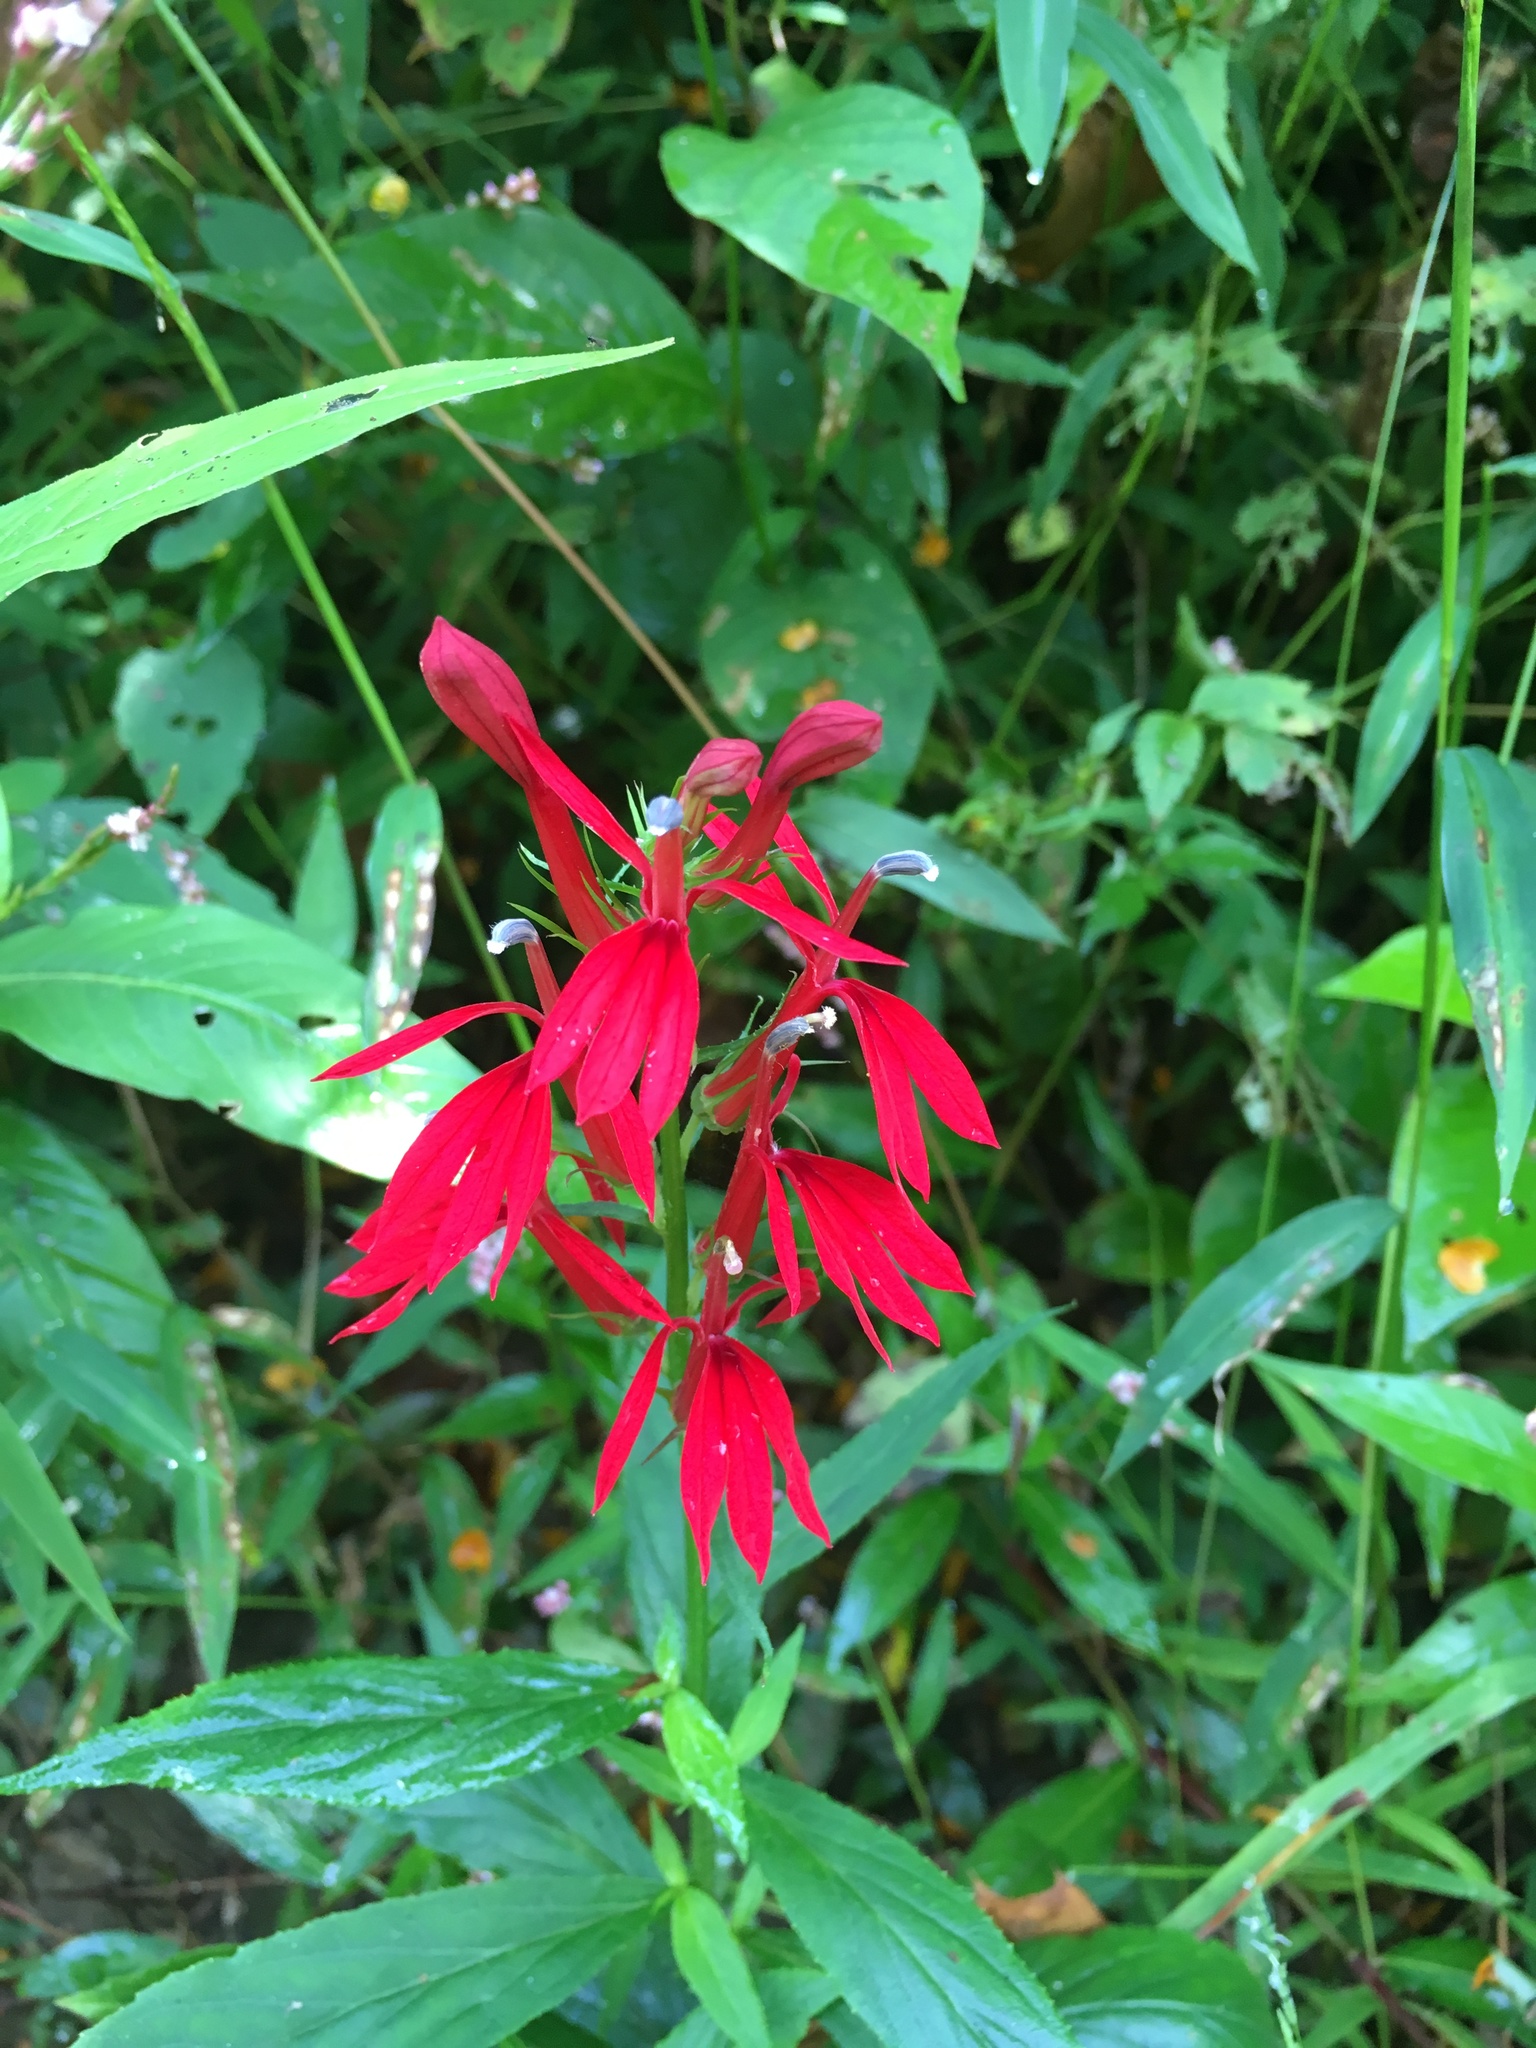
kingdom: Plantae
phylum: Tracheophyta
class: Magnoliopsida
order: Asterales
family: Campanulaceae
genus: Lobelia
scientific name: Lobelia cardinalis
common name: Cardinal flower
